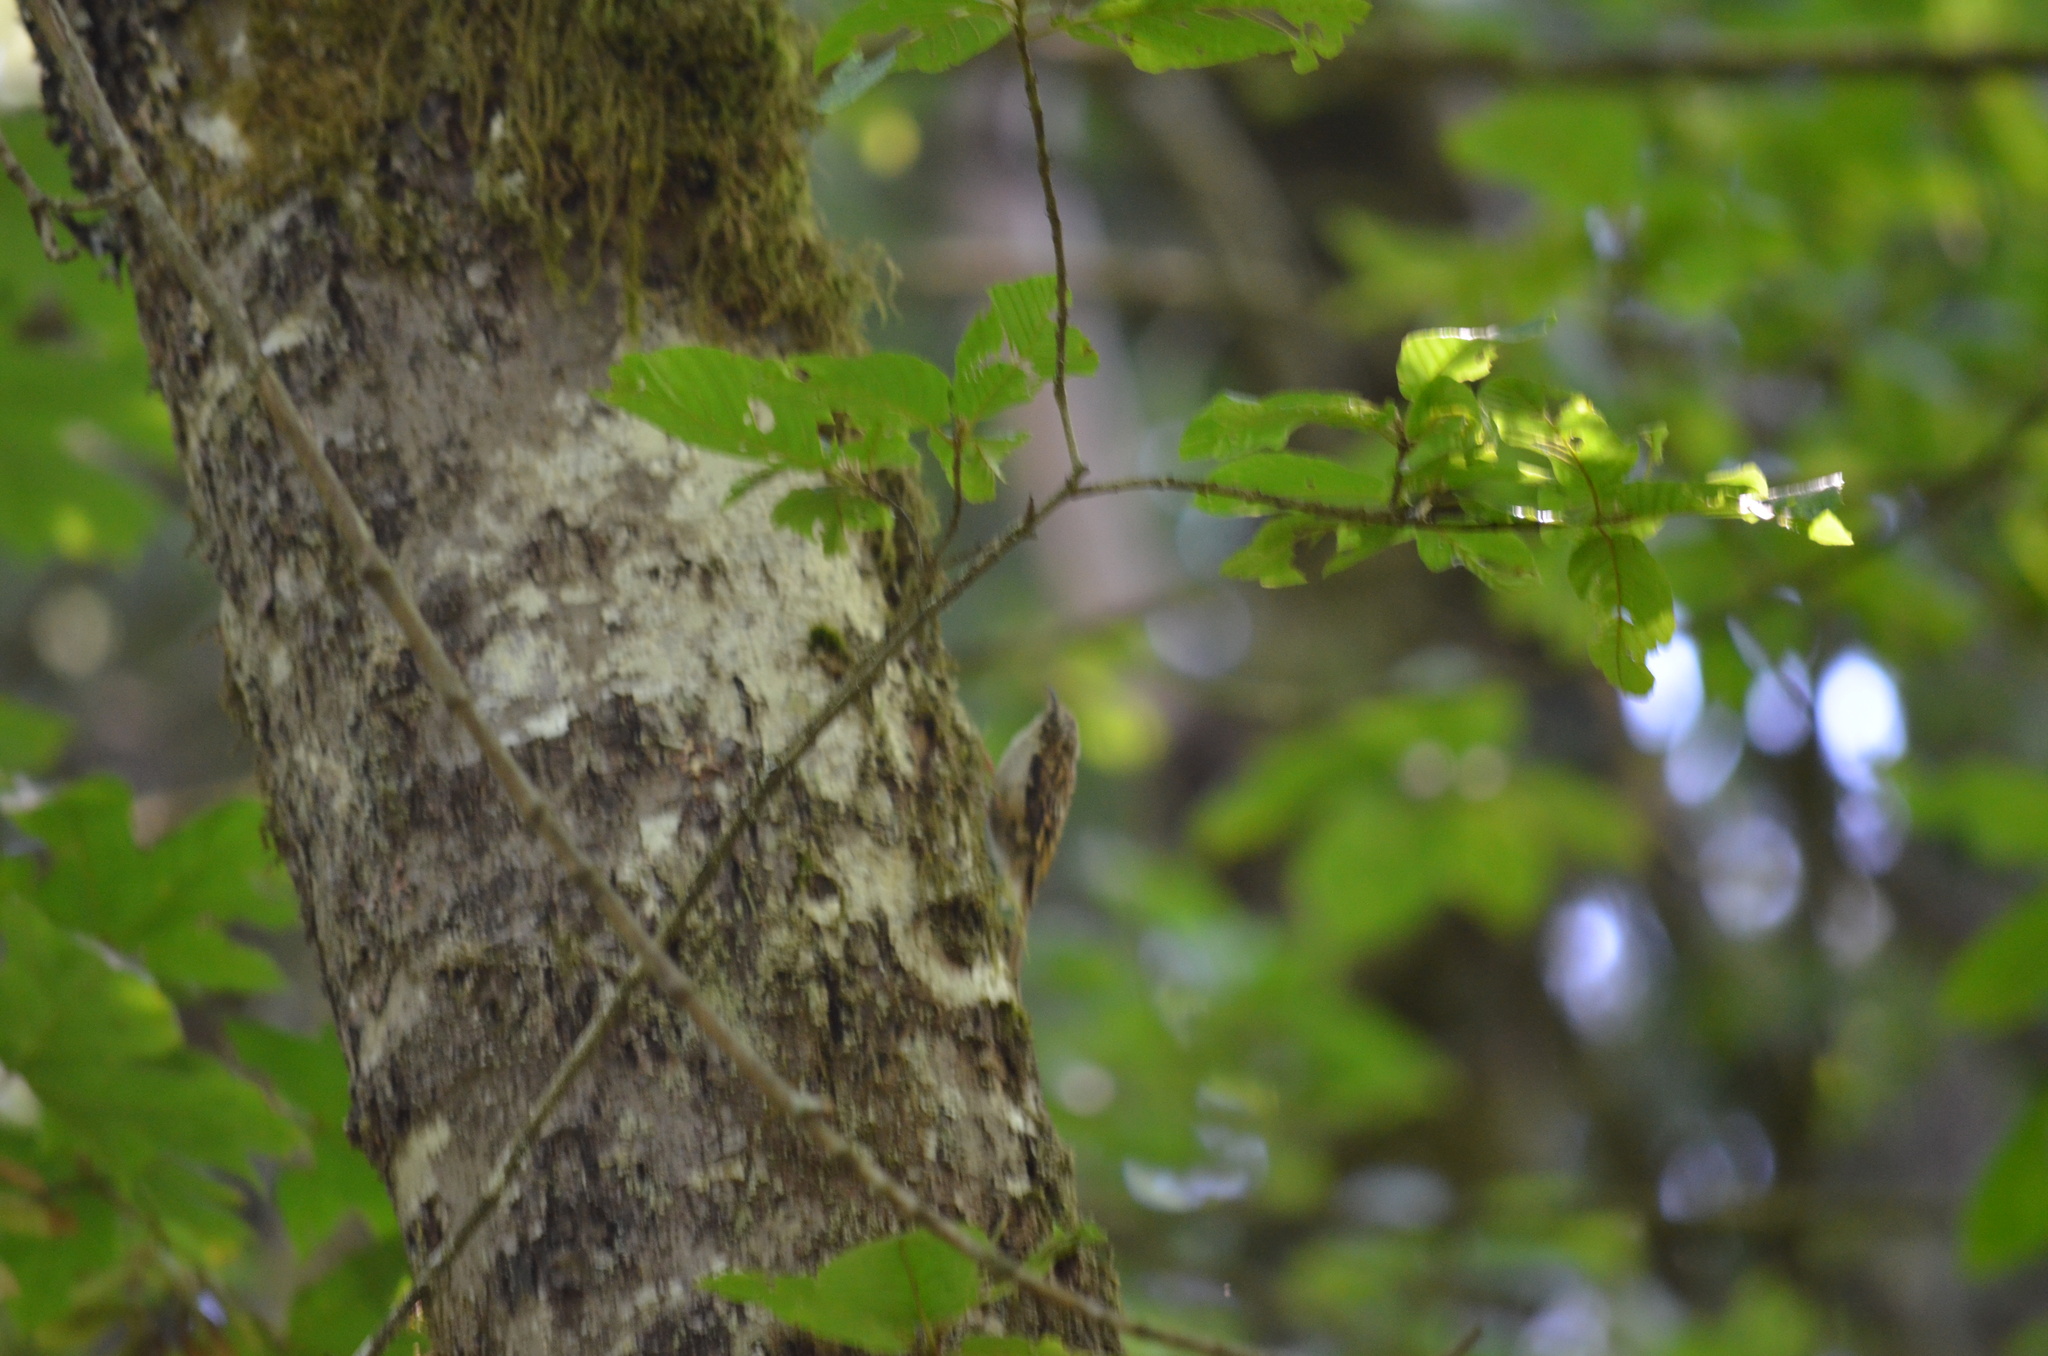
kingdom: Animalia
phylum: Chordata
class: Aves
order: Passeriformes
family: Certhiidae
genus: Certhia
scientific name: Certhia americana
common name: Brown creeper
